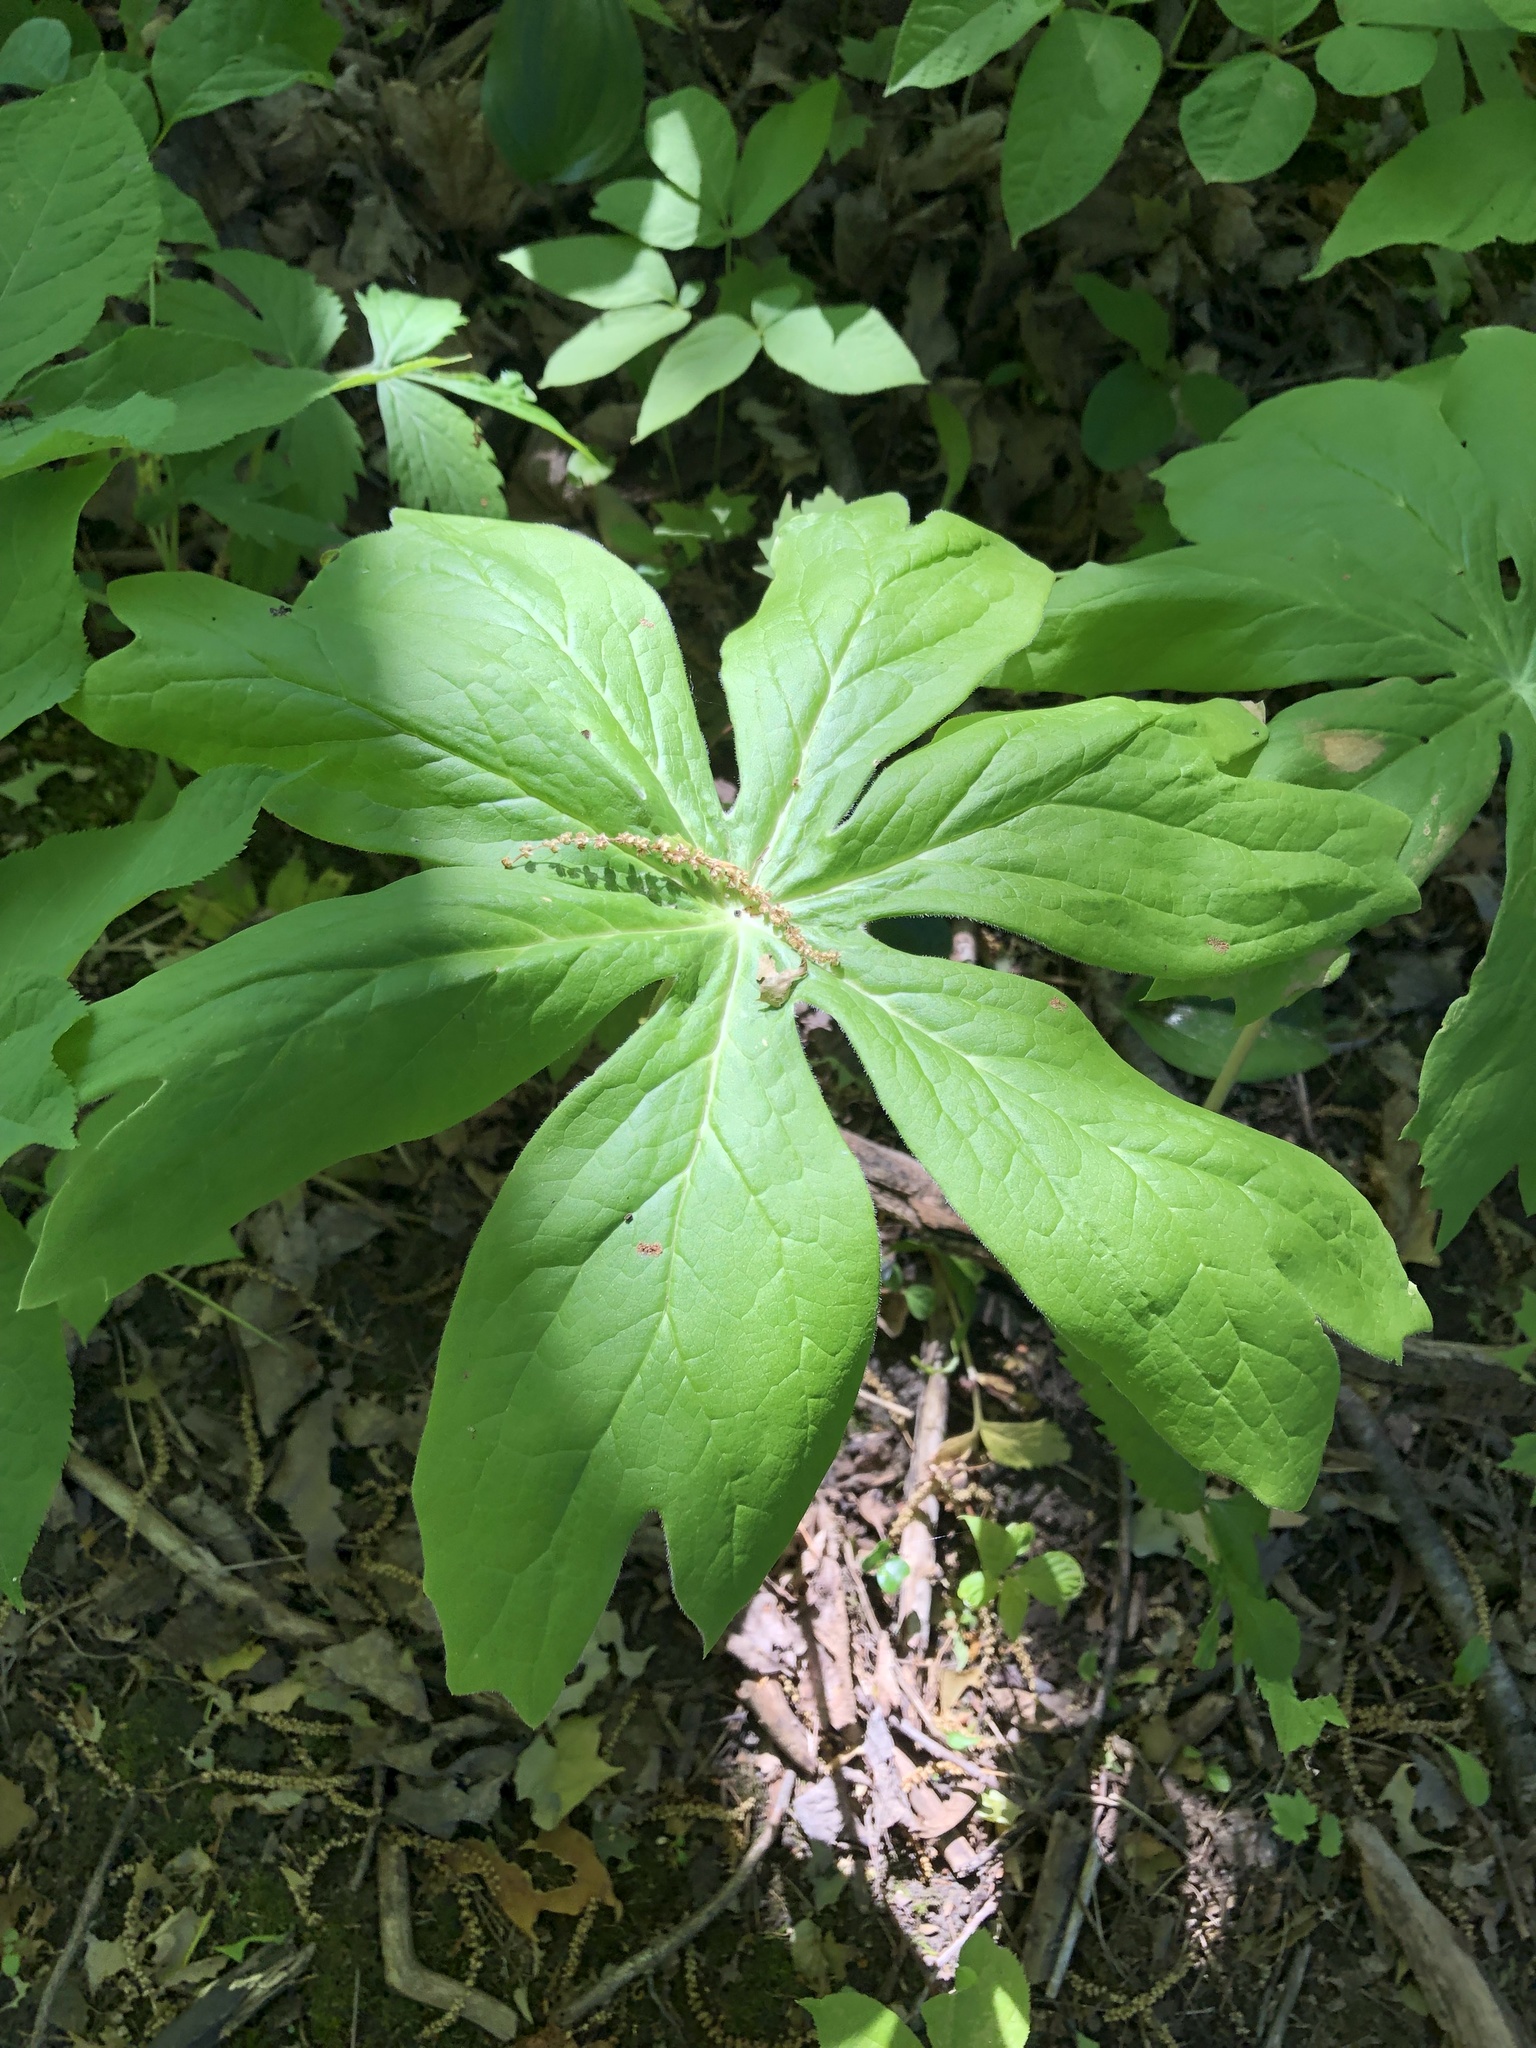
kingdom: Plantae
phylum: Tracheophyta
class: Magnoliopsida
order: Ranunculales
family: Berberidaceae
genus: Podophyllum
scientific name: Podophyllum peltatum
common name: Wild mandrake
